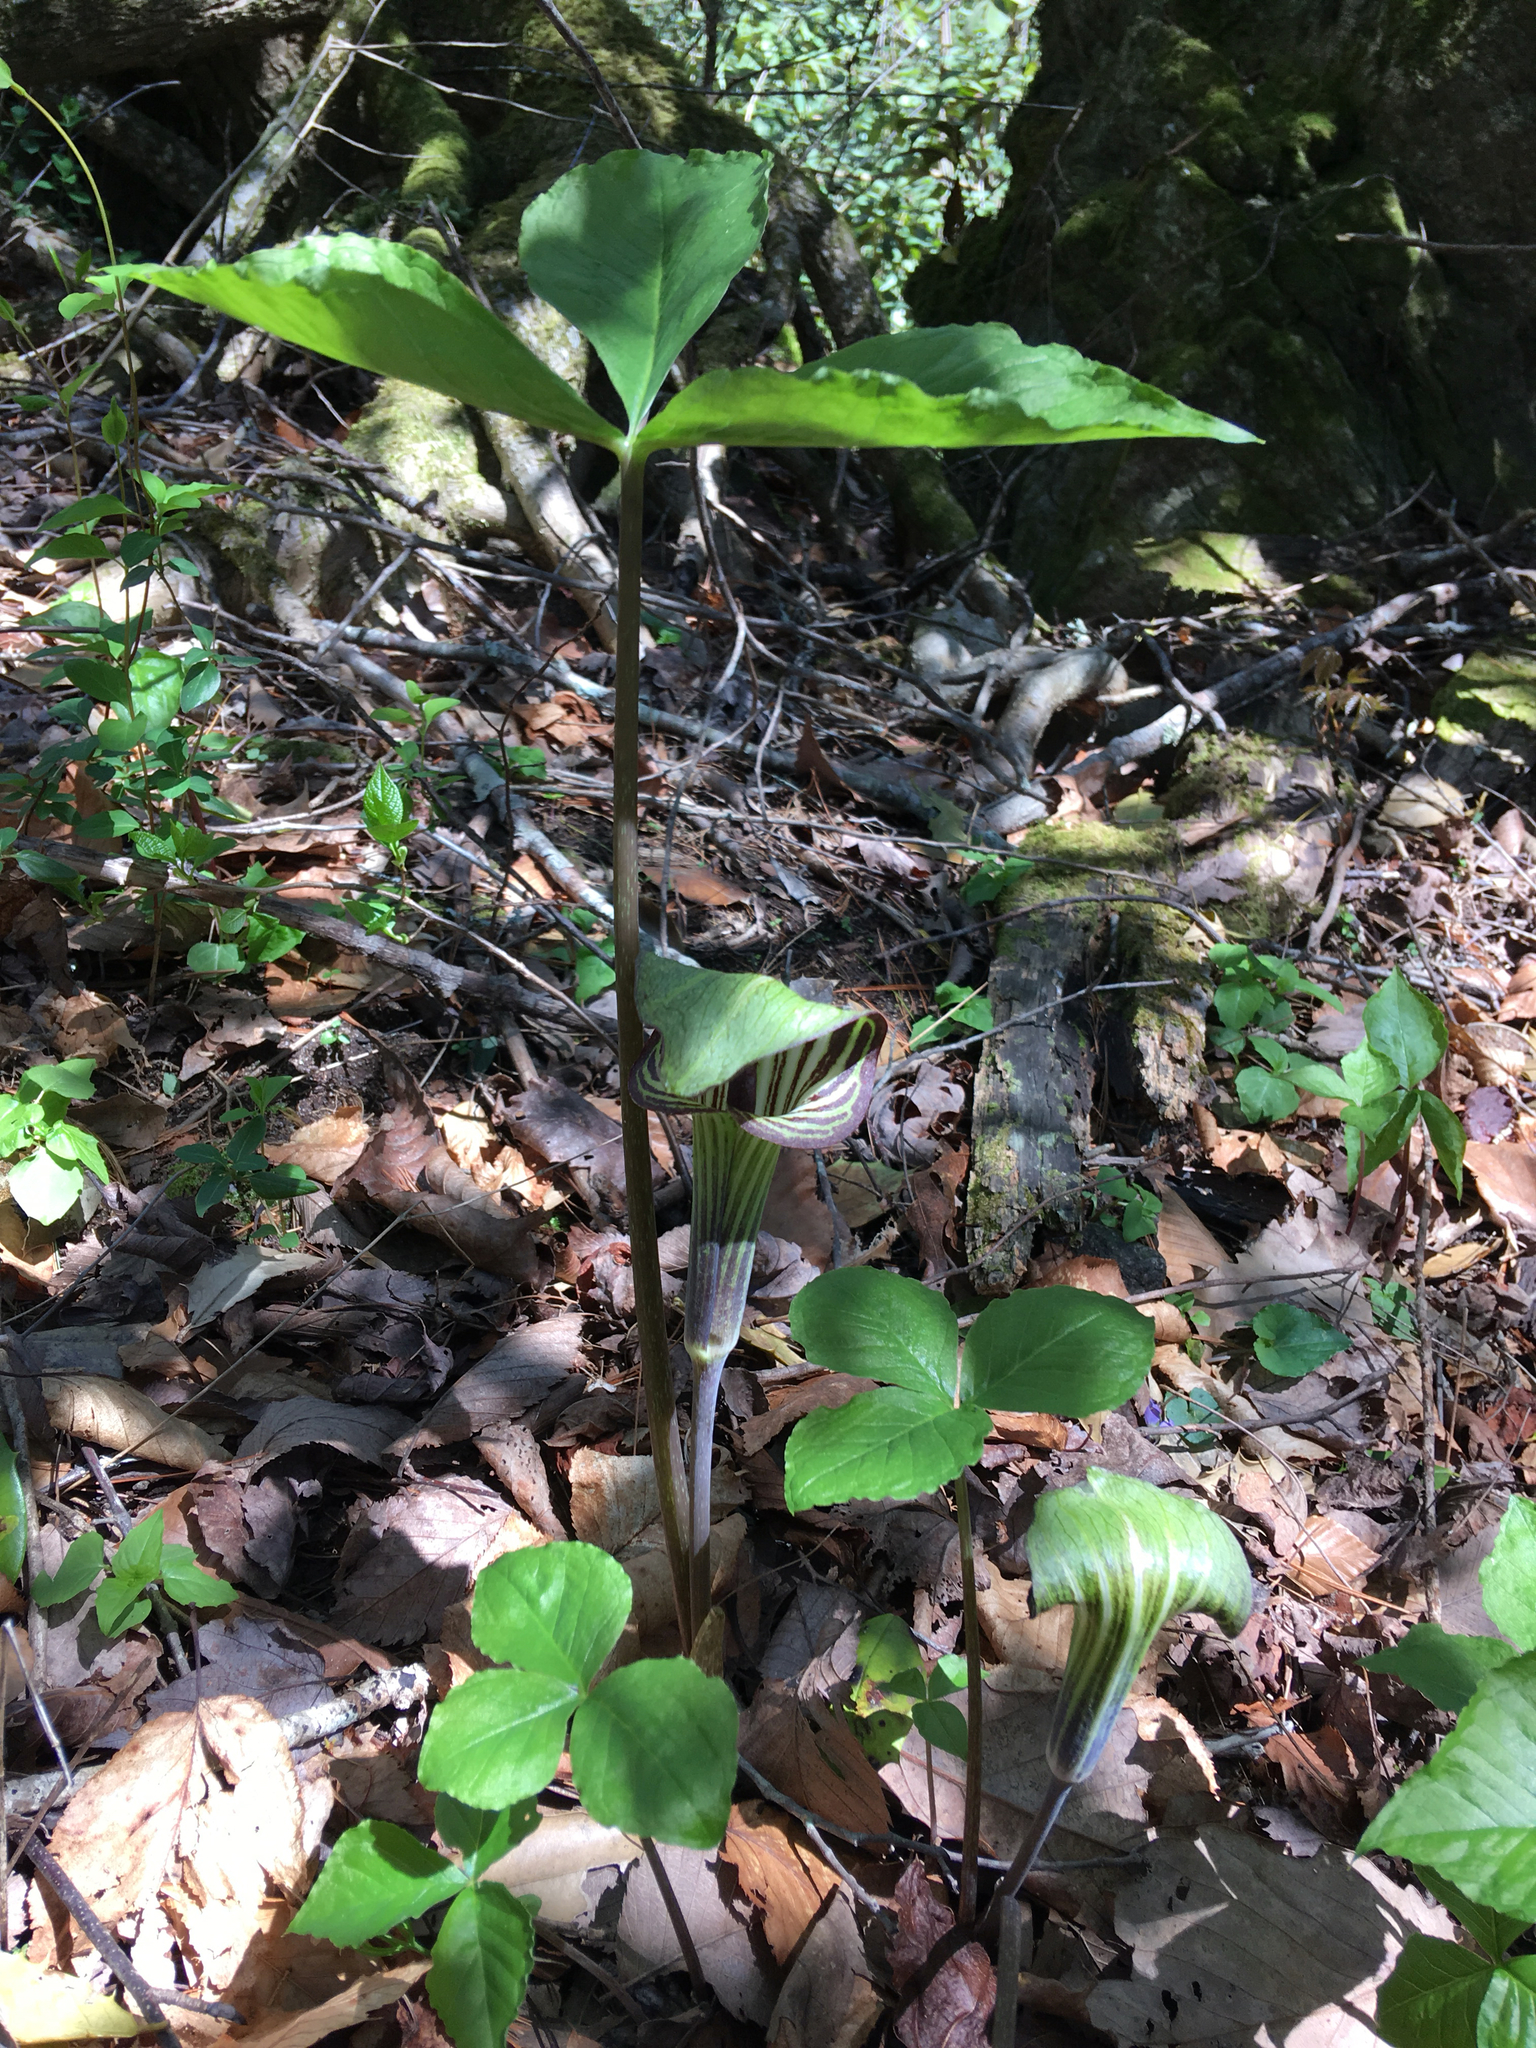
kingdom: Plantae
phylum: Tracheophyta
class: Liliopsida
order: Alismatales
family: Araceae
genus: Arisaema
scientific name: Arisaema triphyllum
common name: Jack-in-the-pulpit
